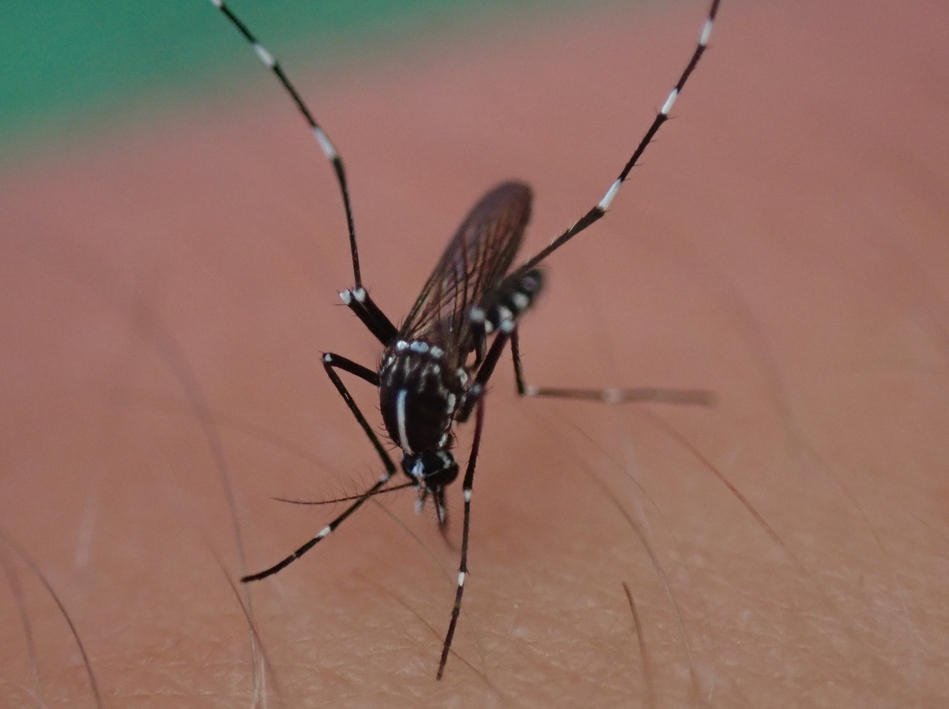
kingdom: Animalia
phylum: Arthropoda
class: Insecta
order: Diptera
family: Culicidae
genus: Aedes
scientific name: Aedes albopictus
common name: Tiger mosquito
